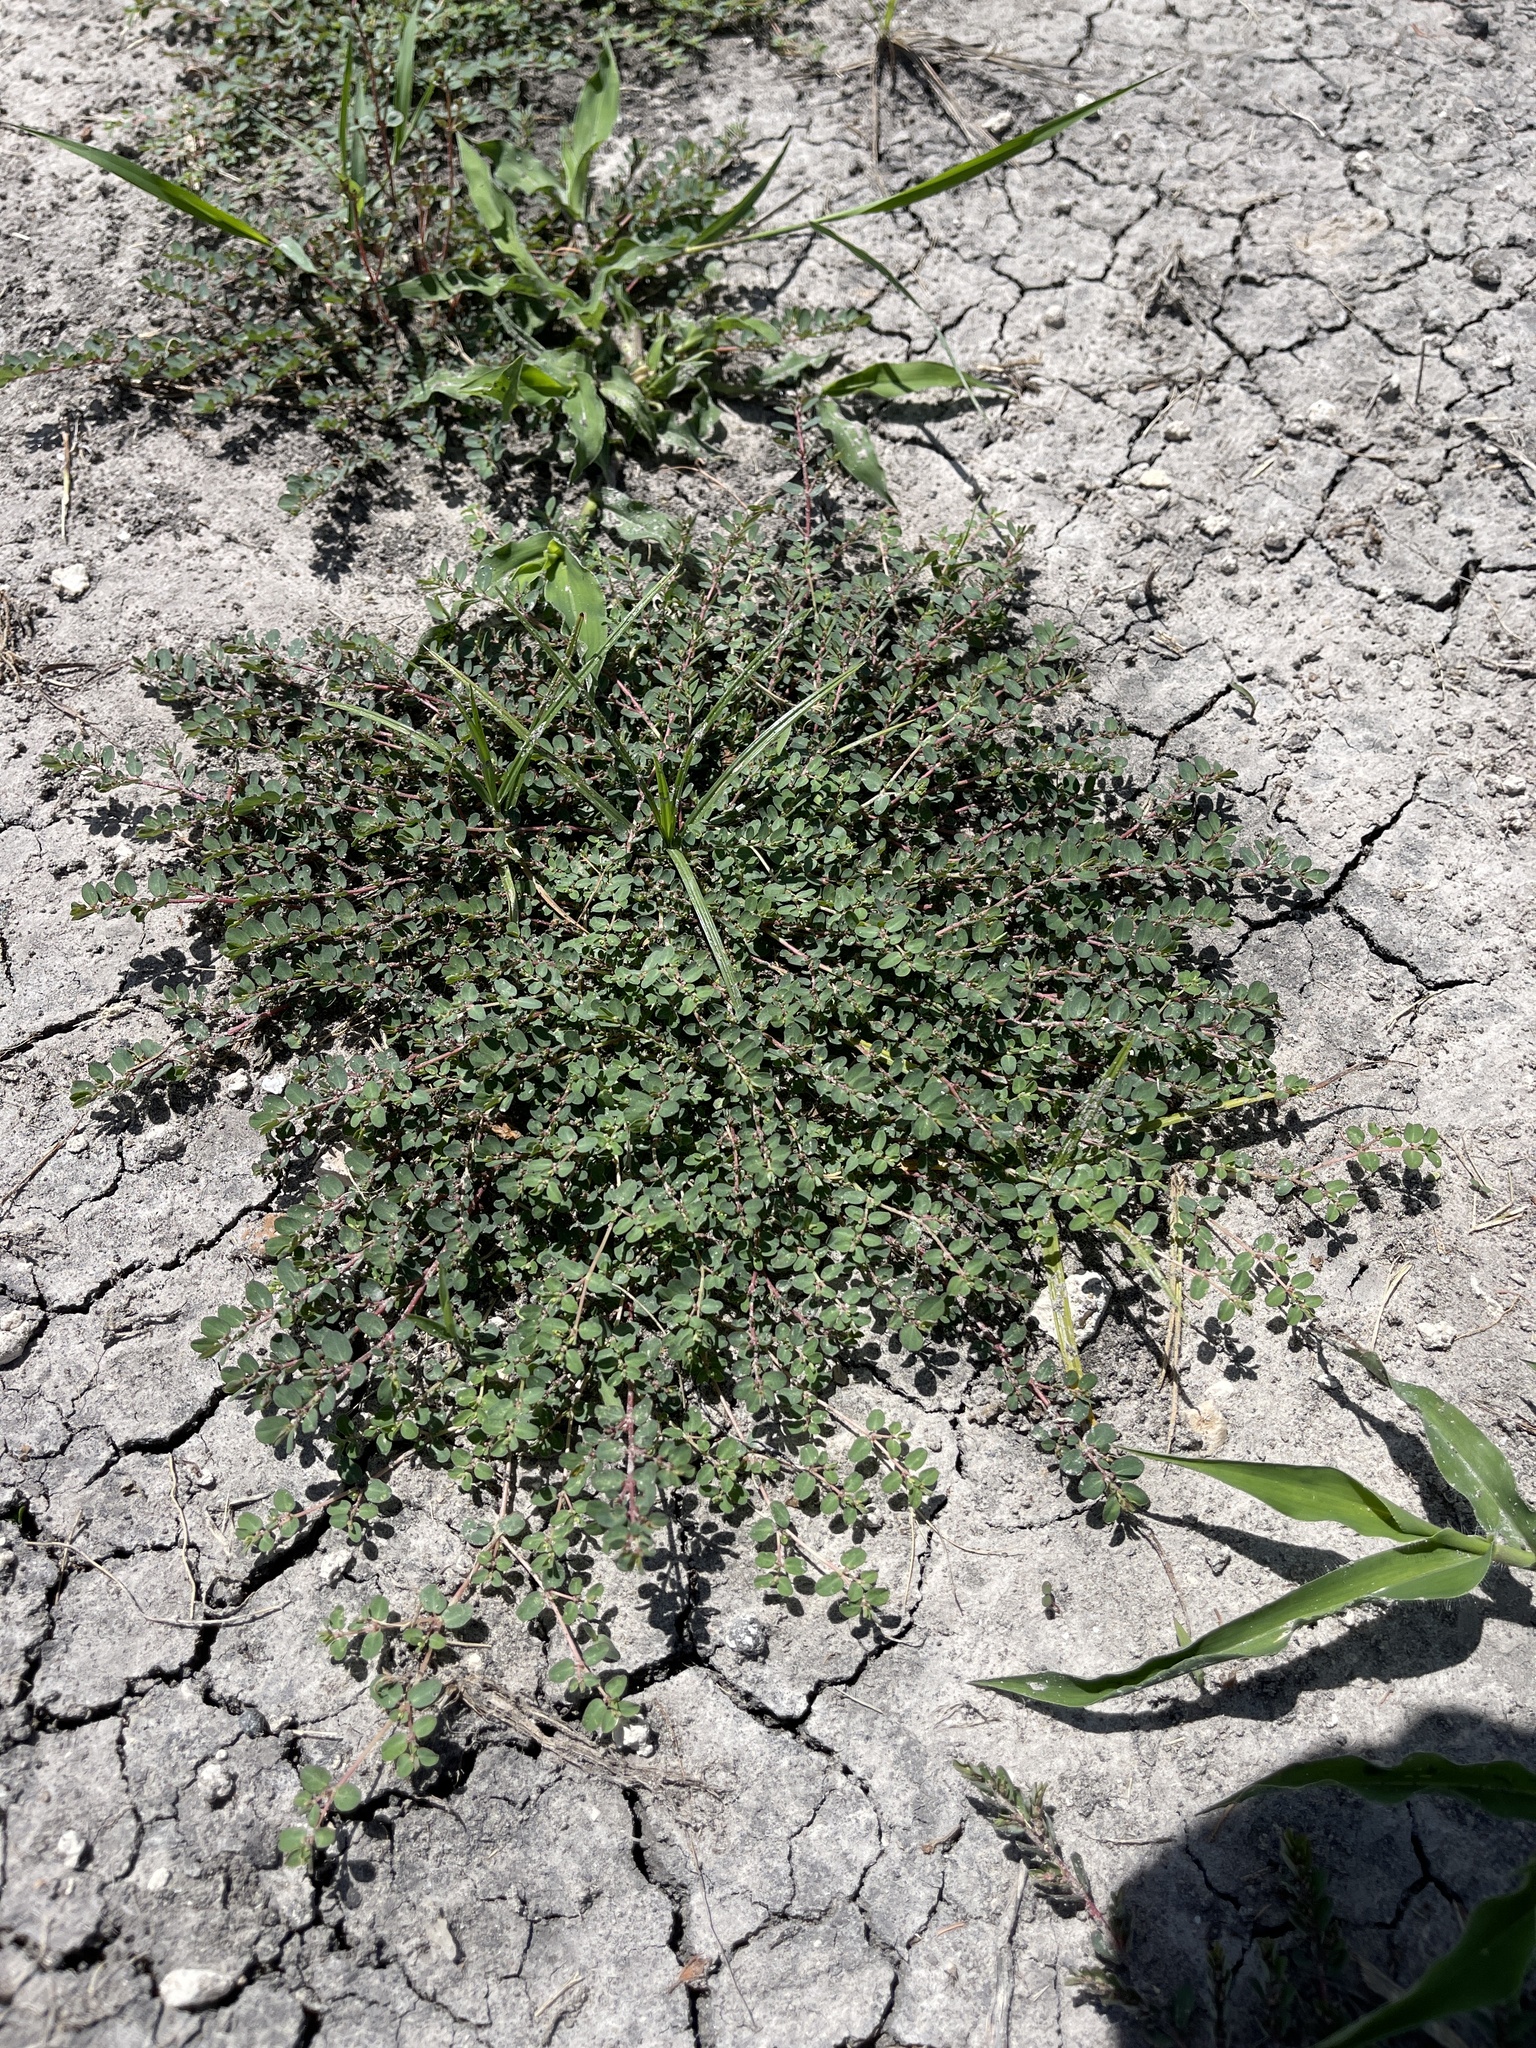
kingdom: Plantae
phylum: Tracheophyta
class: Magnoliopsida
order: Malpighiales
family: Euphorbiaceae
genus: Euphorbia
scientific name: Euphorbia prostrata
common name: Prostrate sandmat
